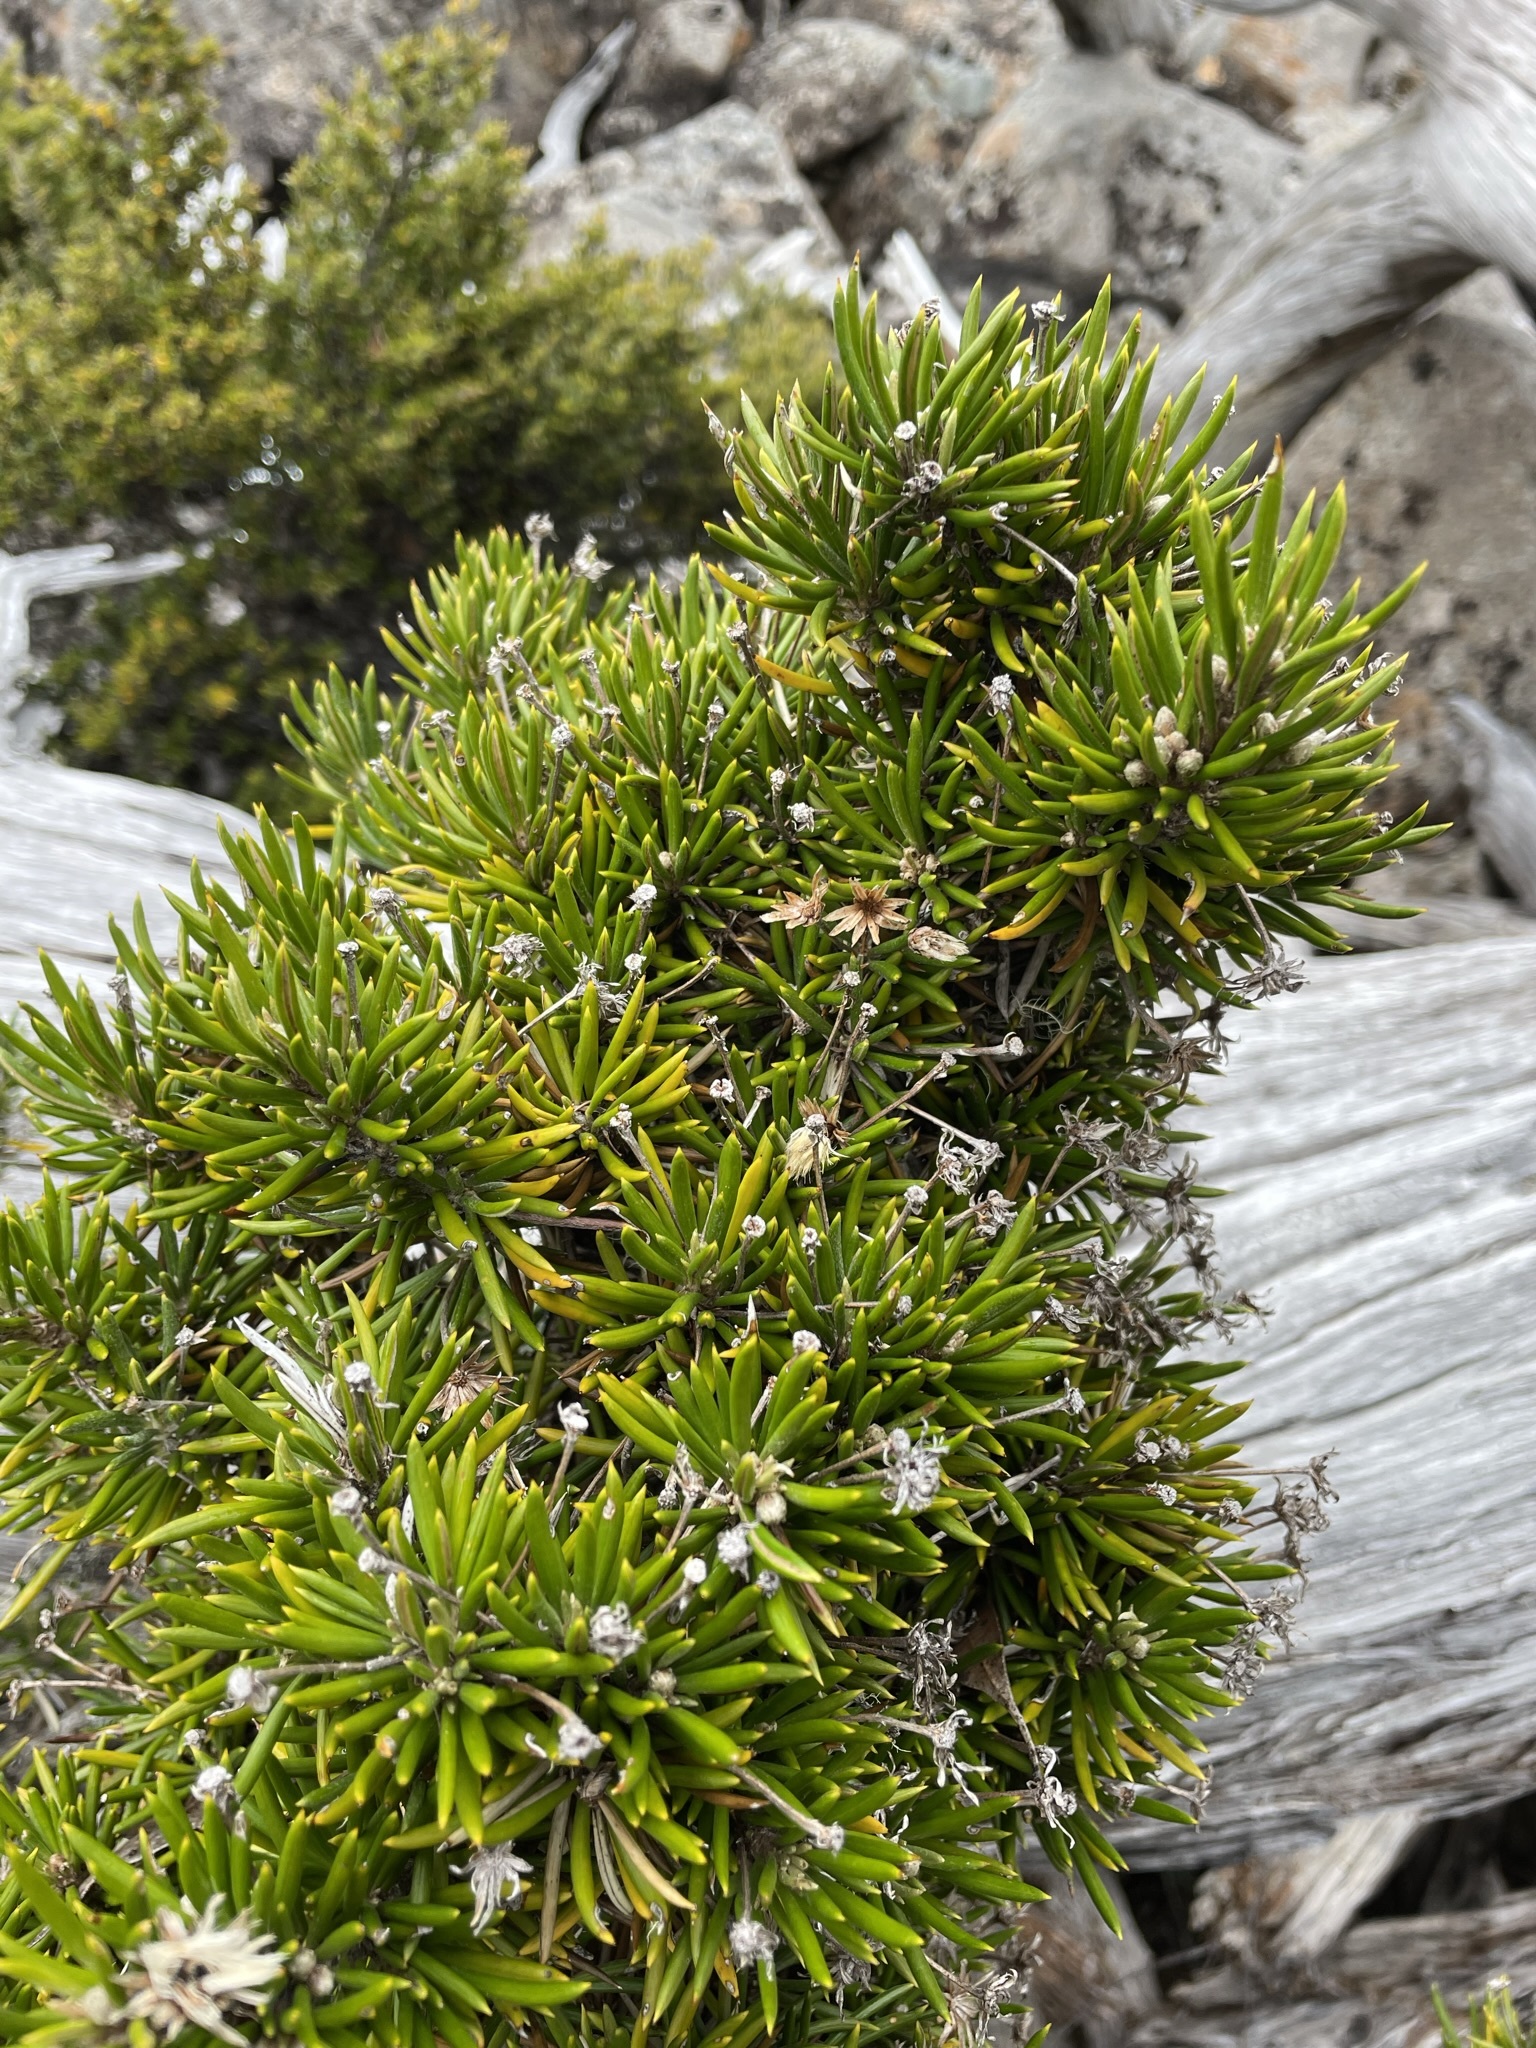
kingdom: Plantae
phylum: Tracheophyta
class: Magnoliopsida
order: Asterales
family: Asteraceae
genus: Olearia
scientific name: Olearia pinifolia
